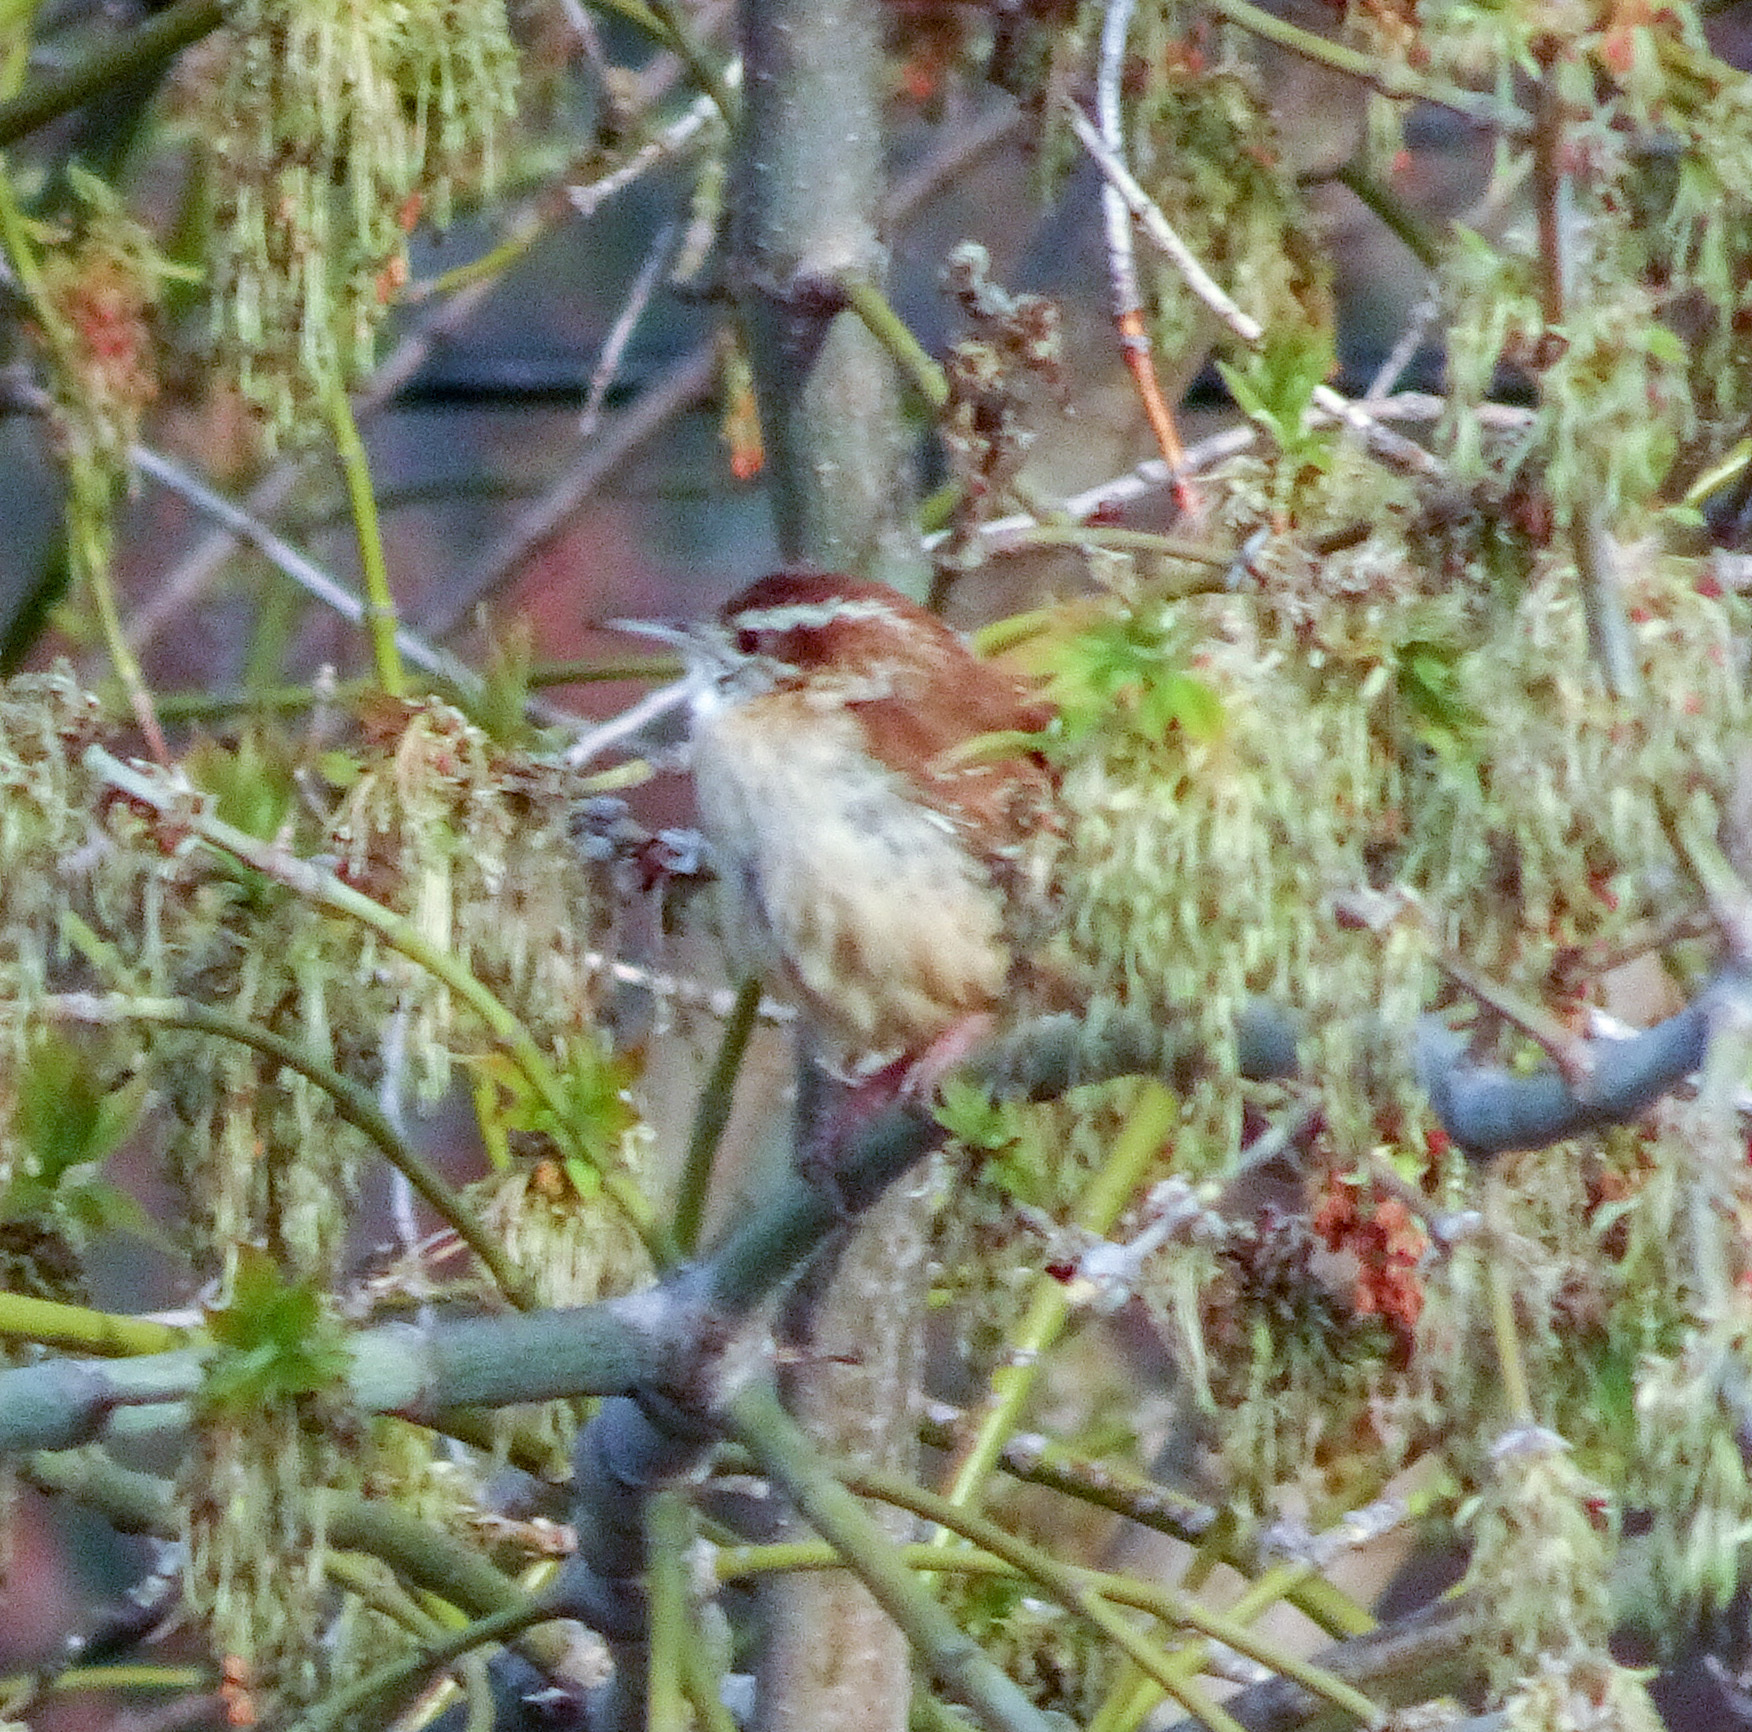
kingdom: Animalia
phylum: Chordata
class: Aves
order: Passeriformes
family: Troglodytidae
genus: Thryothorus
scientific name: Thryothorus ludovicianus
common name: Carolina wren
